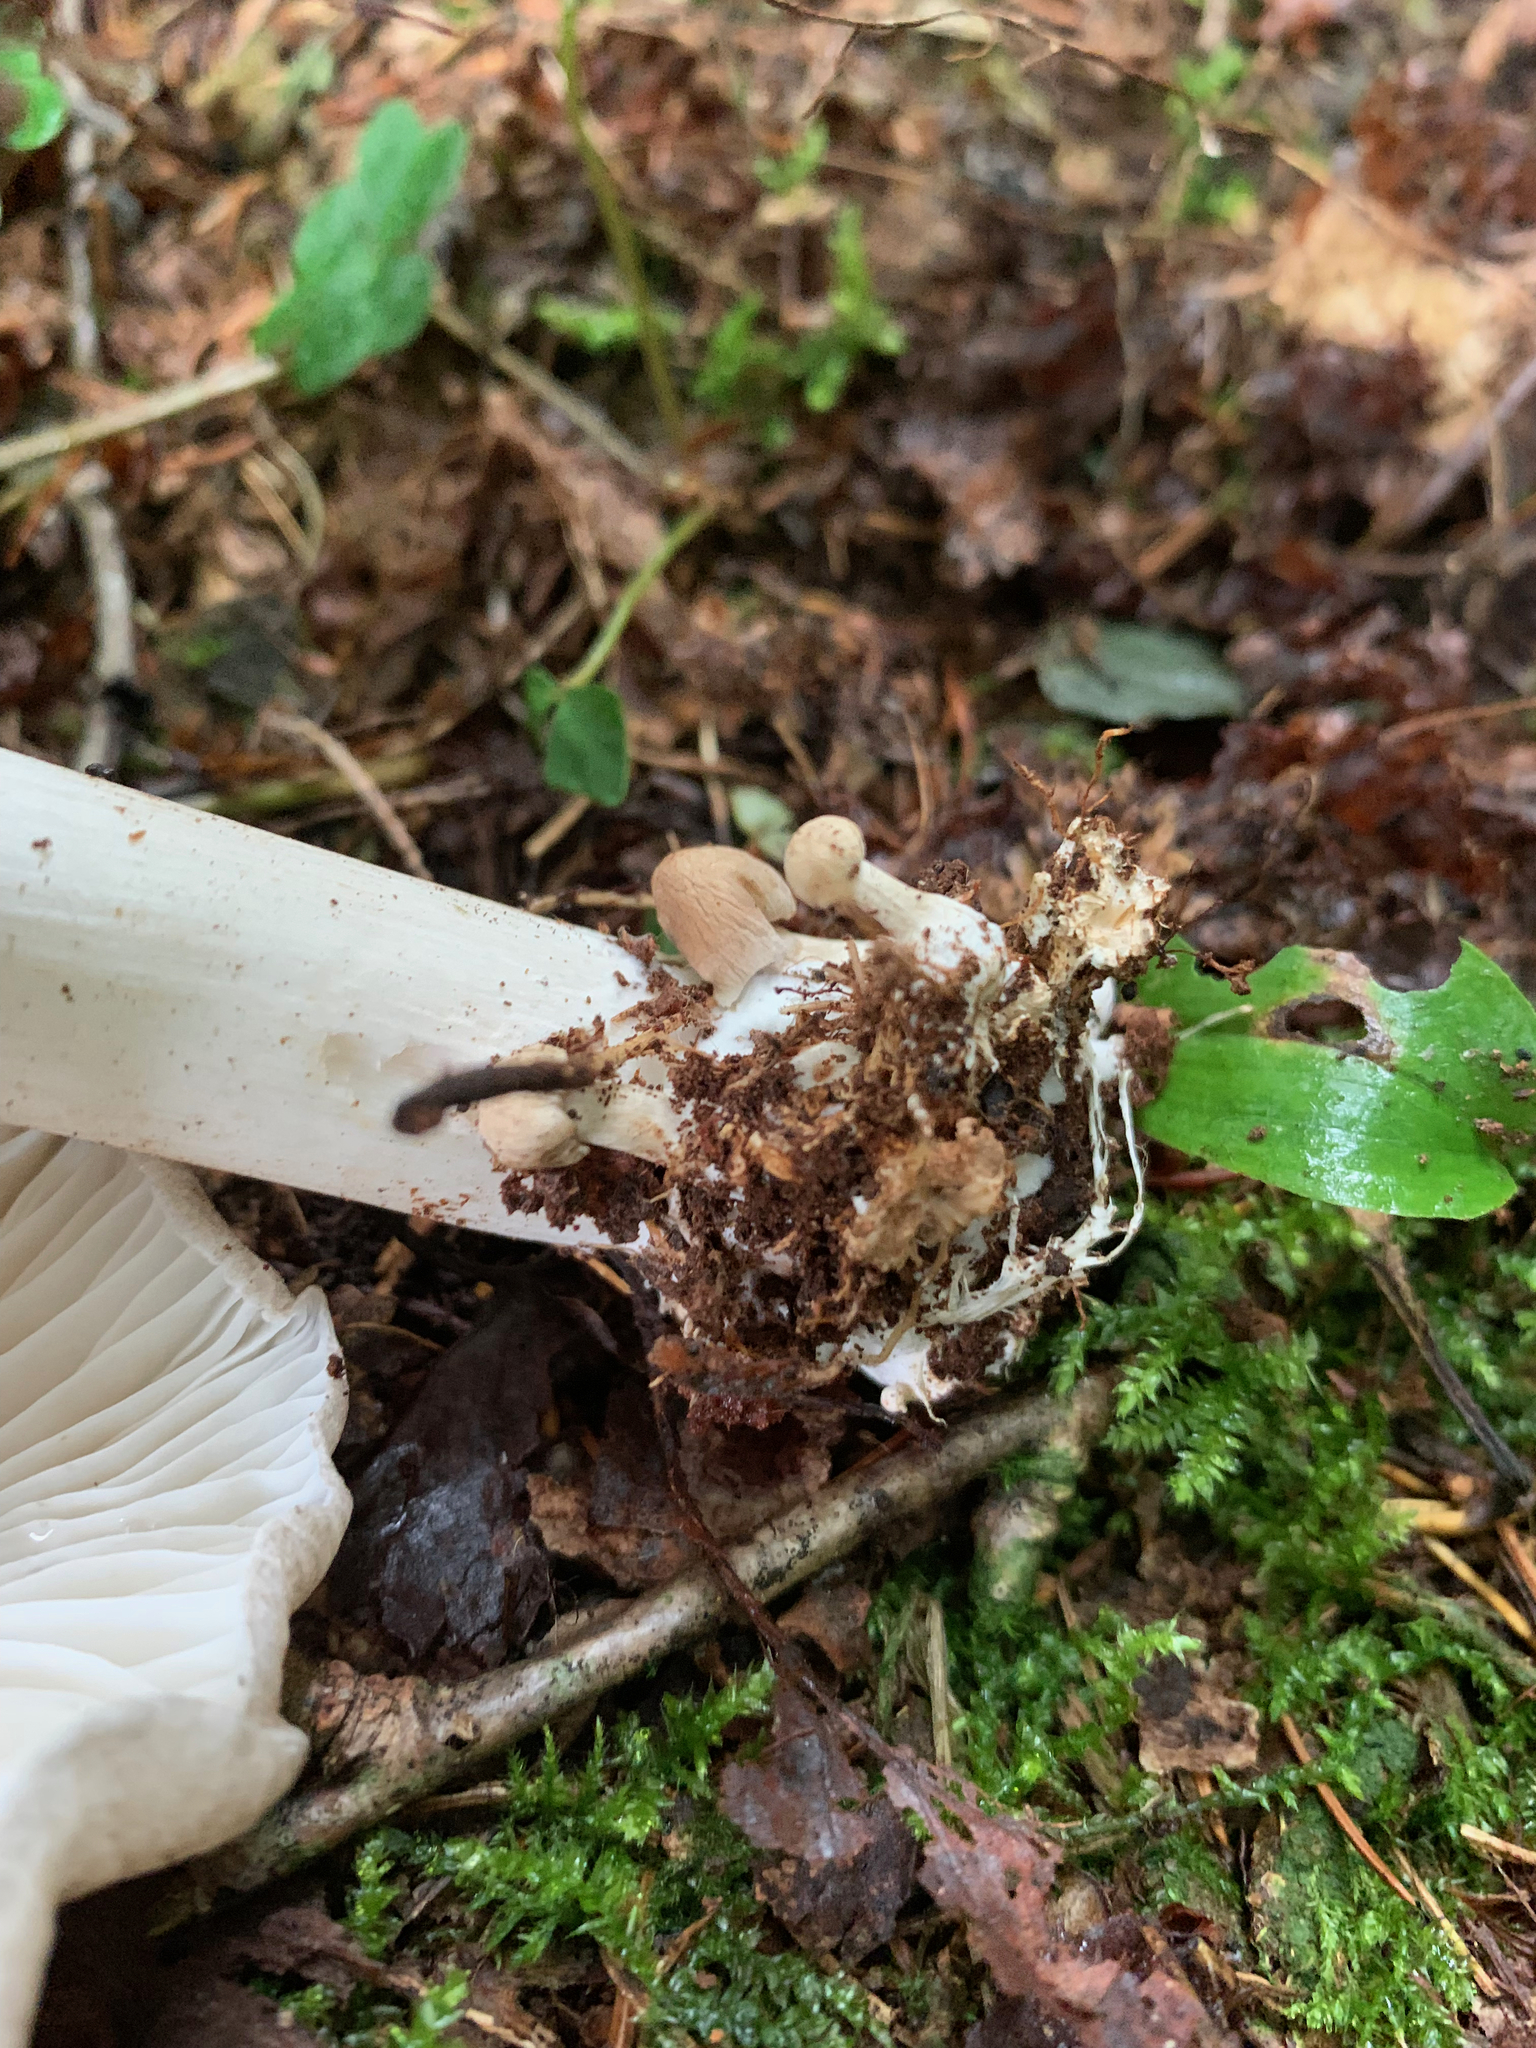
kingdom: Fungi
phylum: Basidiomycota
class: Agaricomycetes
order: Agaricales
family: Tricholomataceae
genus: Megacollybia
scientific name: Megacollybia rodmanii
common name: Eastern american platterful mushroom
